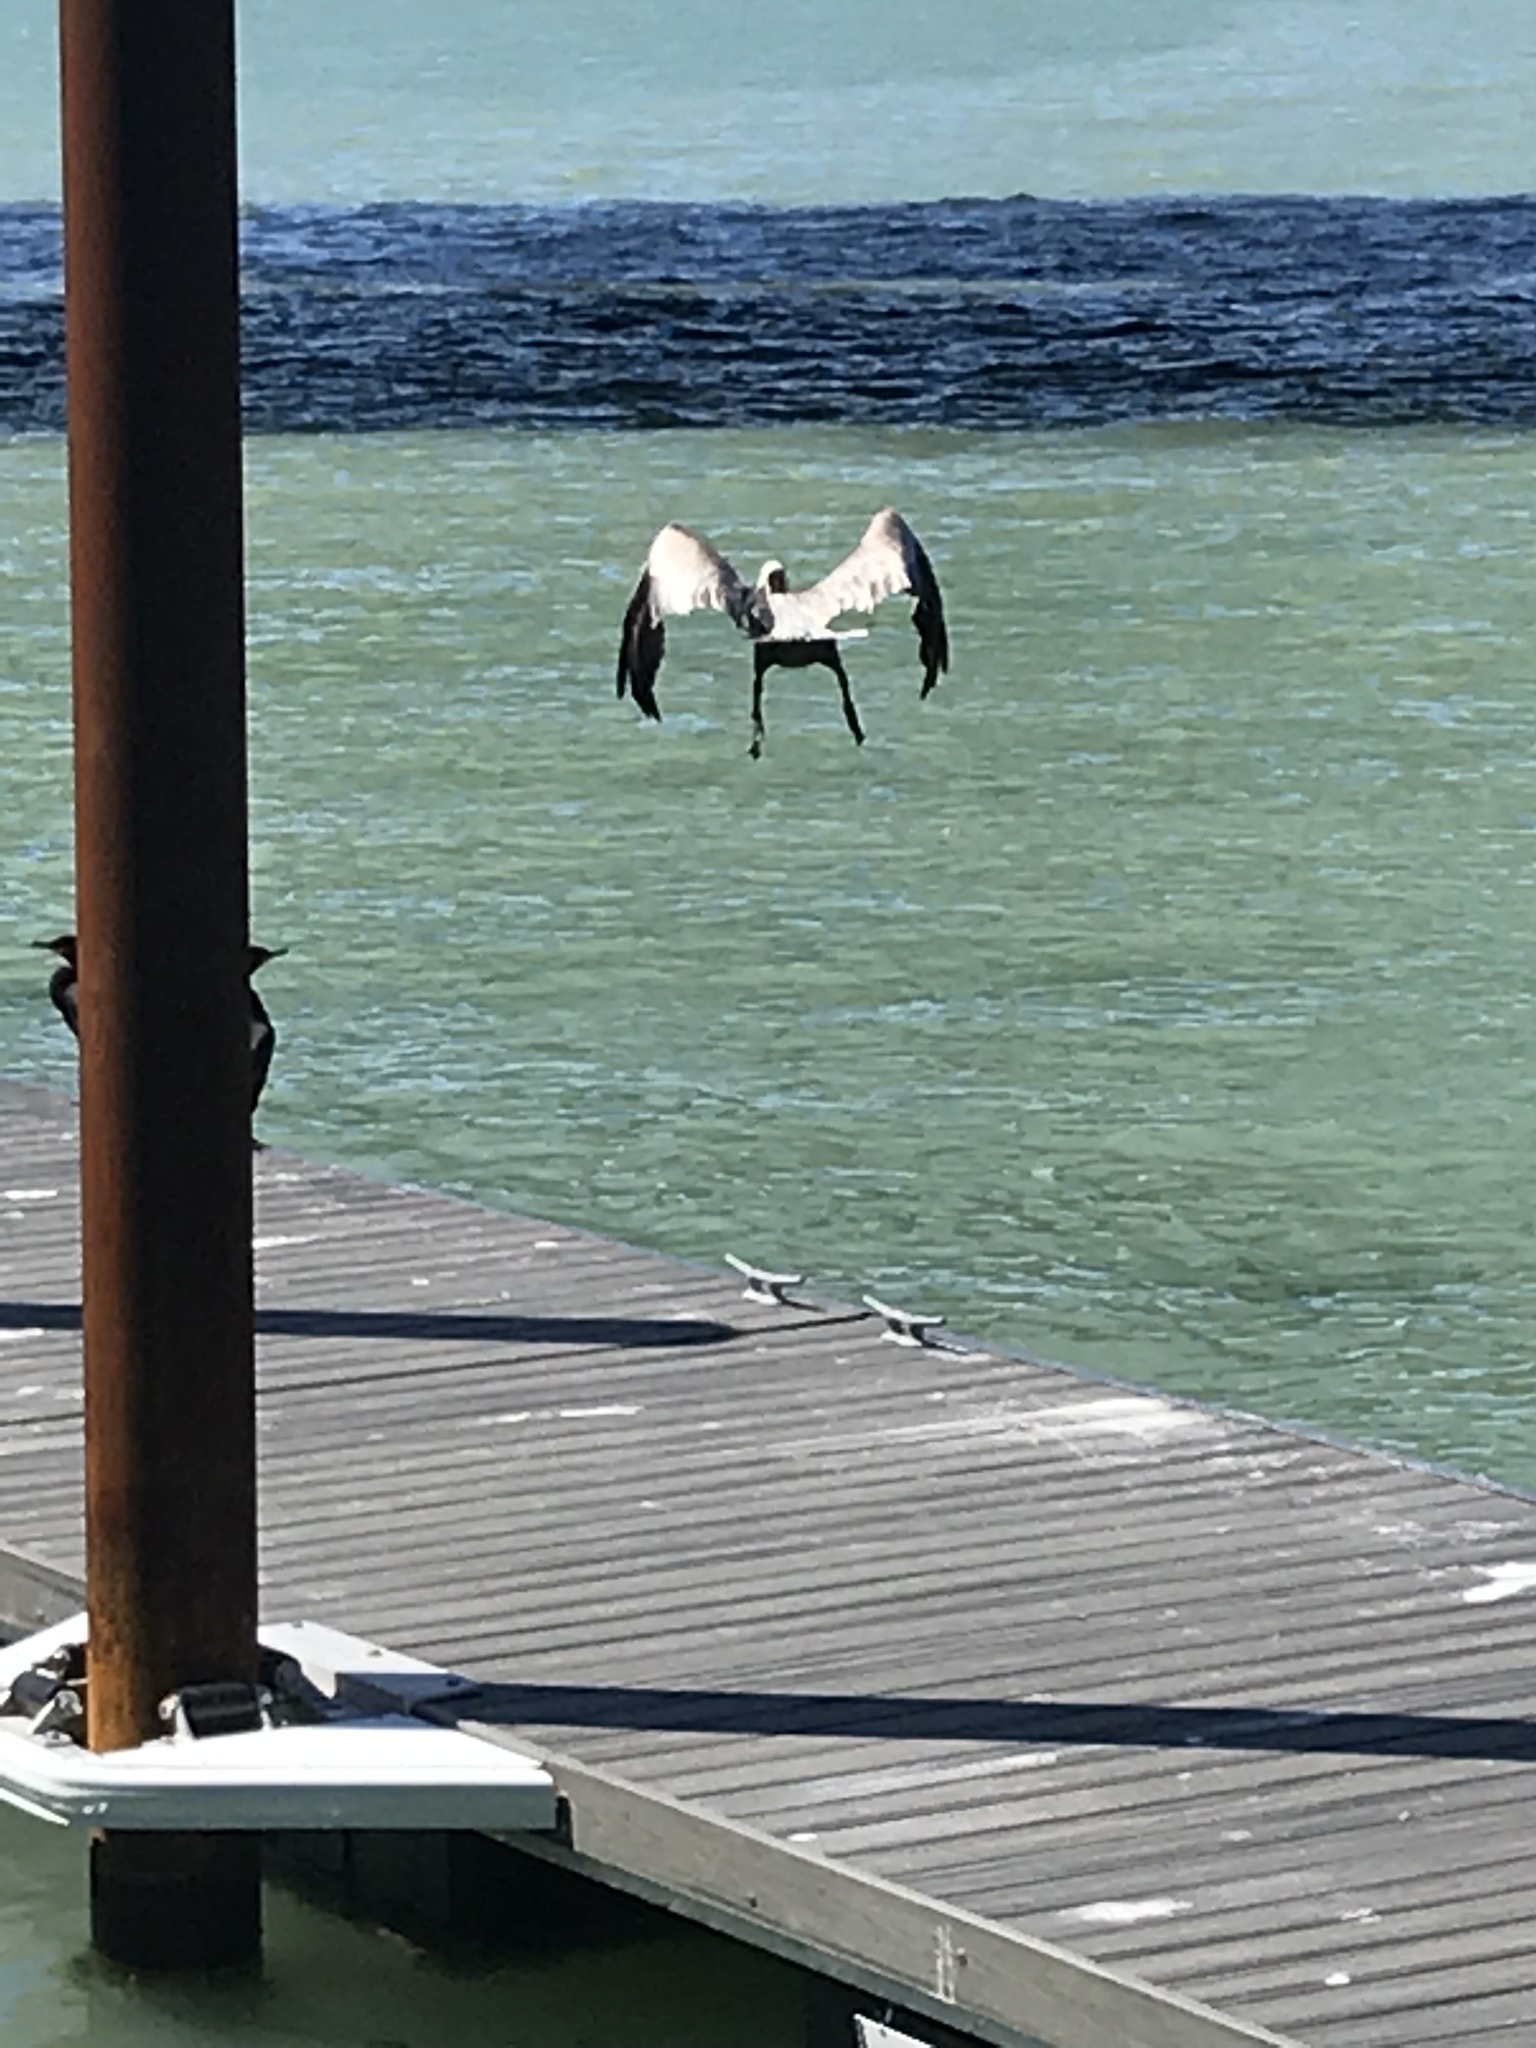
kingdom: Animalia
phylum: Chordata
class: Aves
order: Pelecaniformes
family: Pelecanidae
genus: Pelecanus
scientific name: Pelecanus occidentalis
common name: Brown pelican
